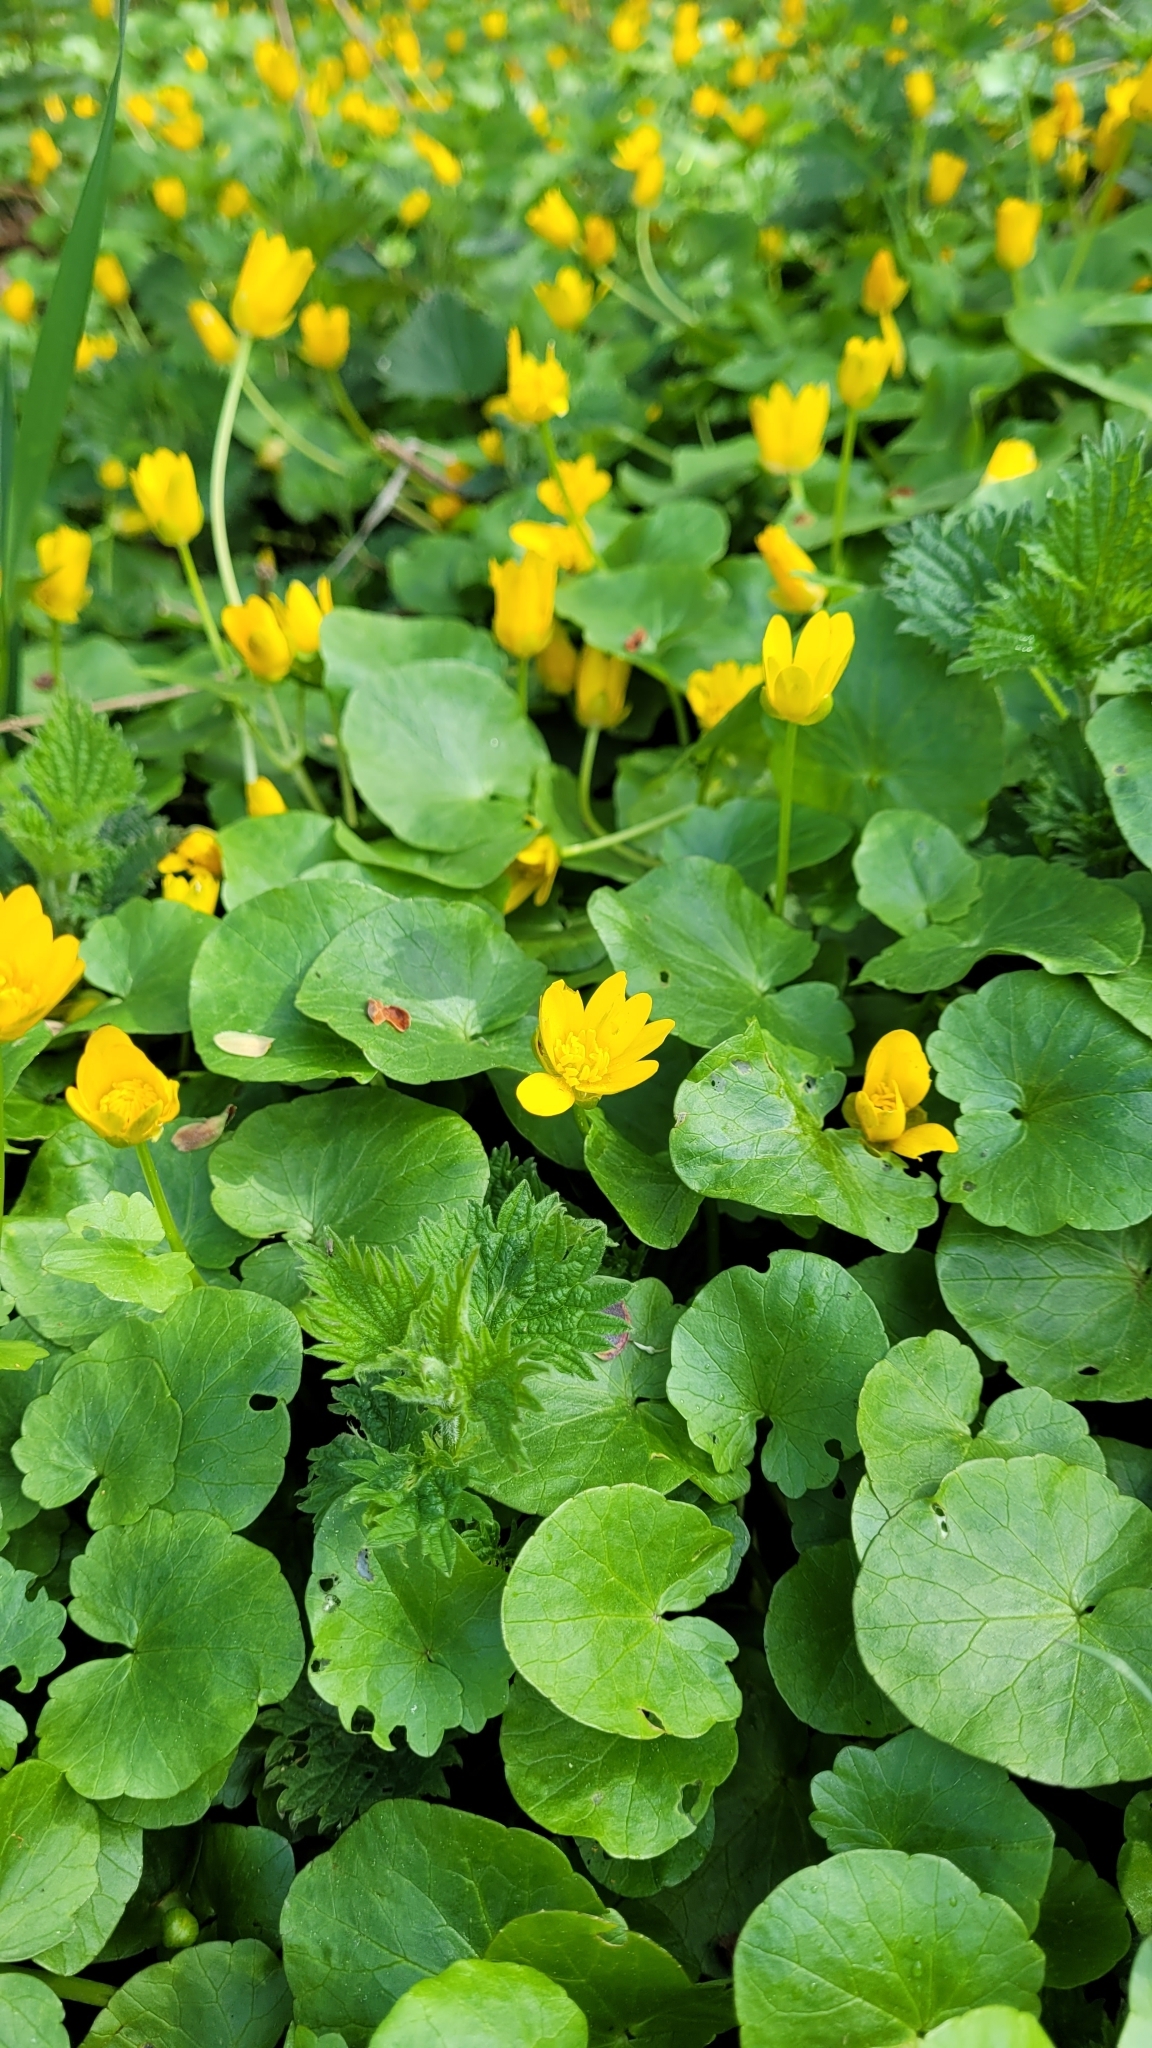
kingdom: Plantae
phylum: Tracheophyta
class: Magnoliopsida
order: Ranunculales
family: Ranunculaceae
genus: Ficaria
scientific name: Ficaria verna
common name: Lesser celandine
